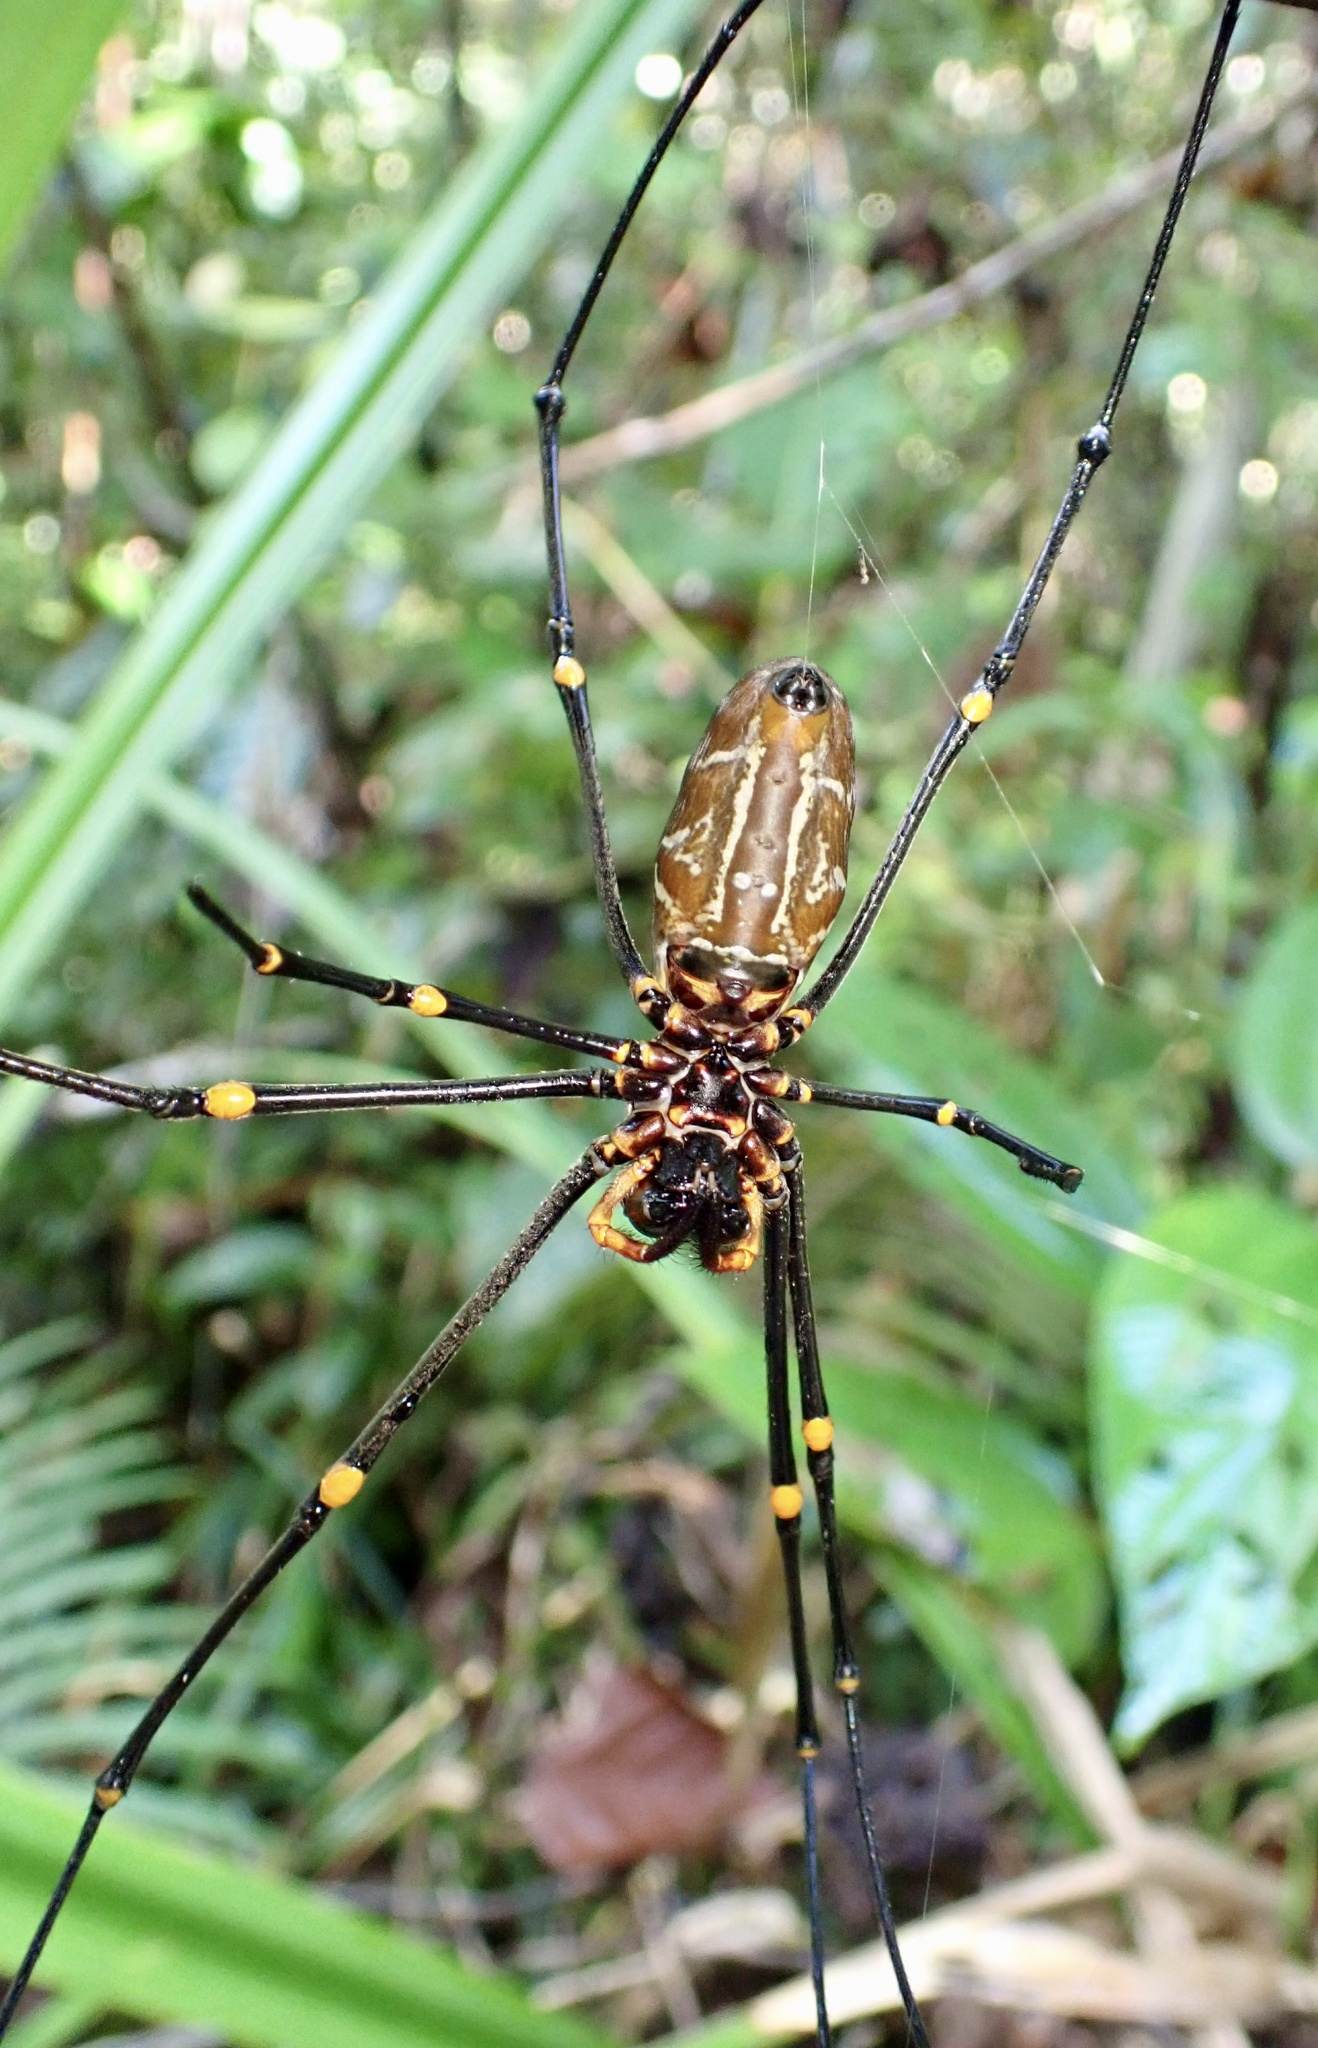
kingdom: Animalia
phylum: Arthropoda
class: Arachnida
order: Araneae
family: Araneidae
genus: Nephila
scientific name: Nephila pilipes
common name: Giant golden orb weaver
